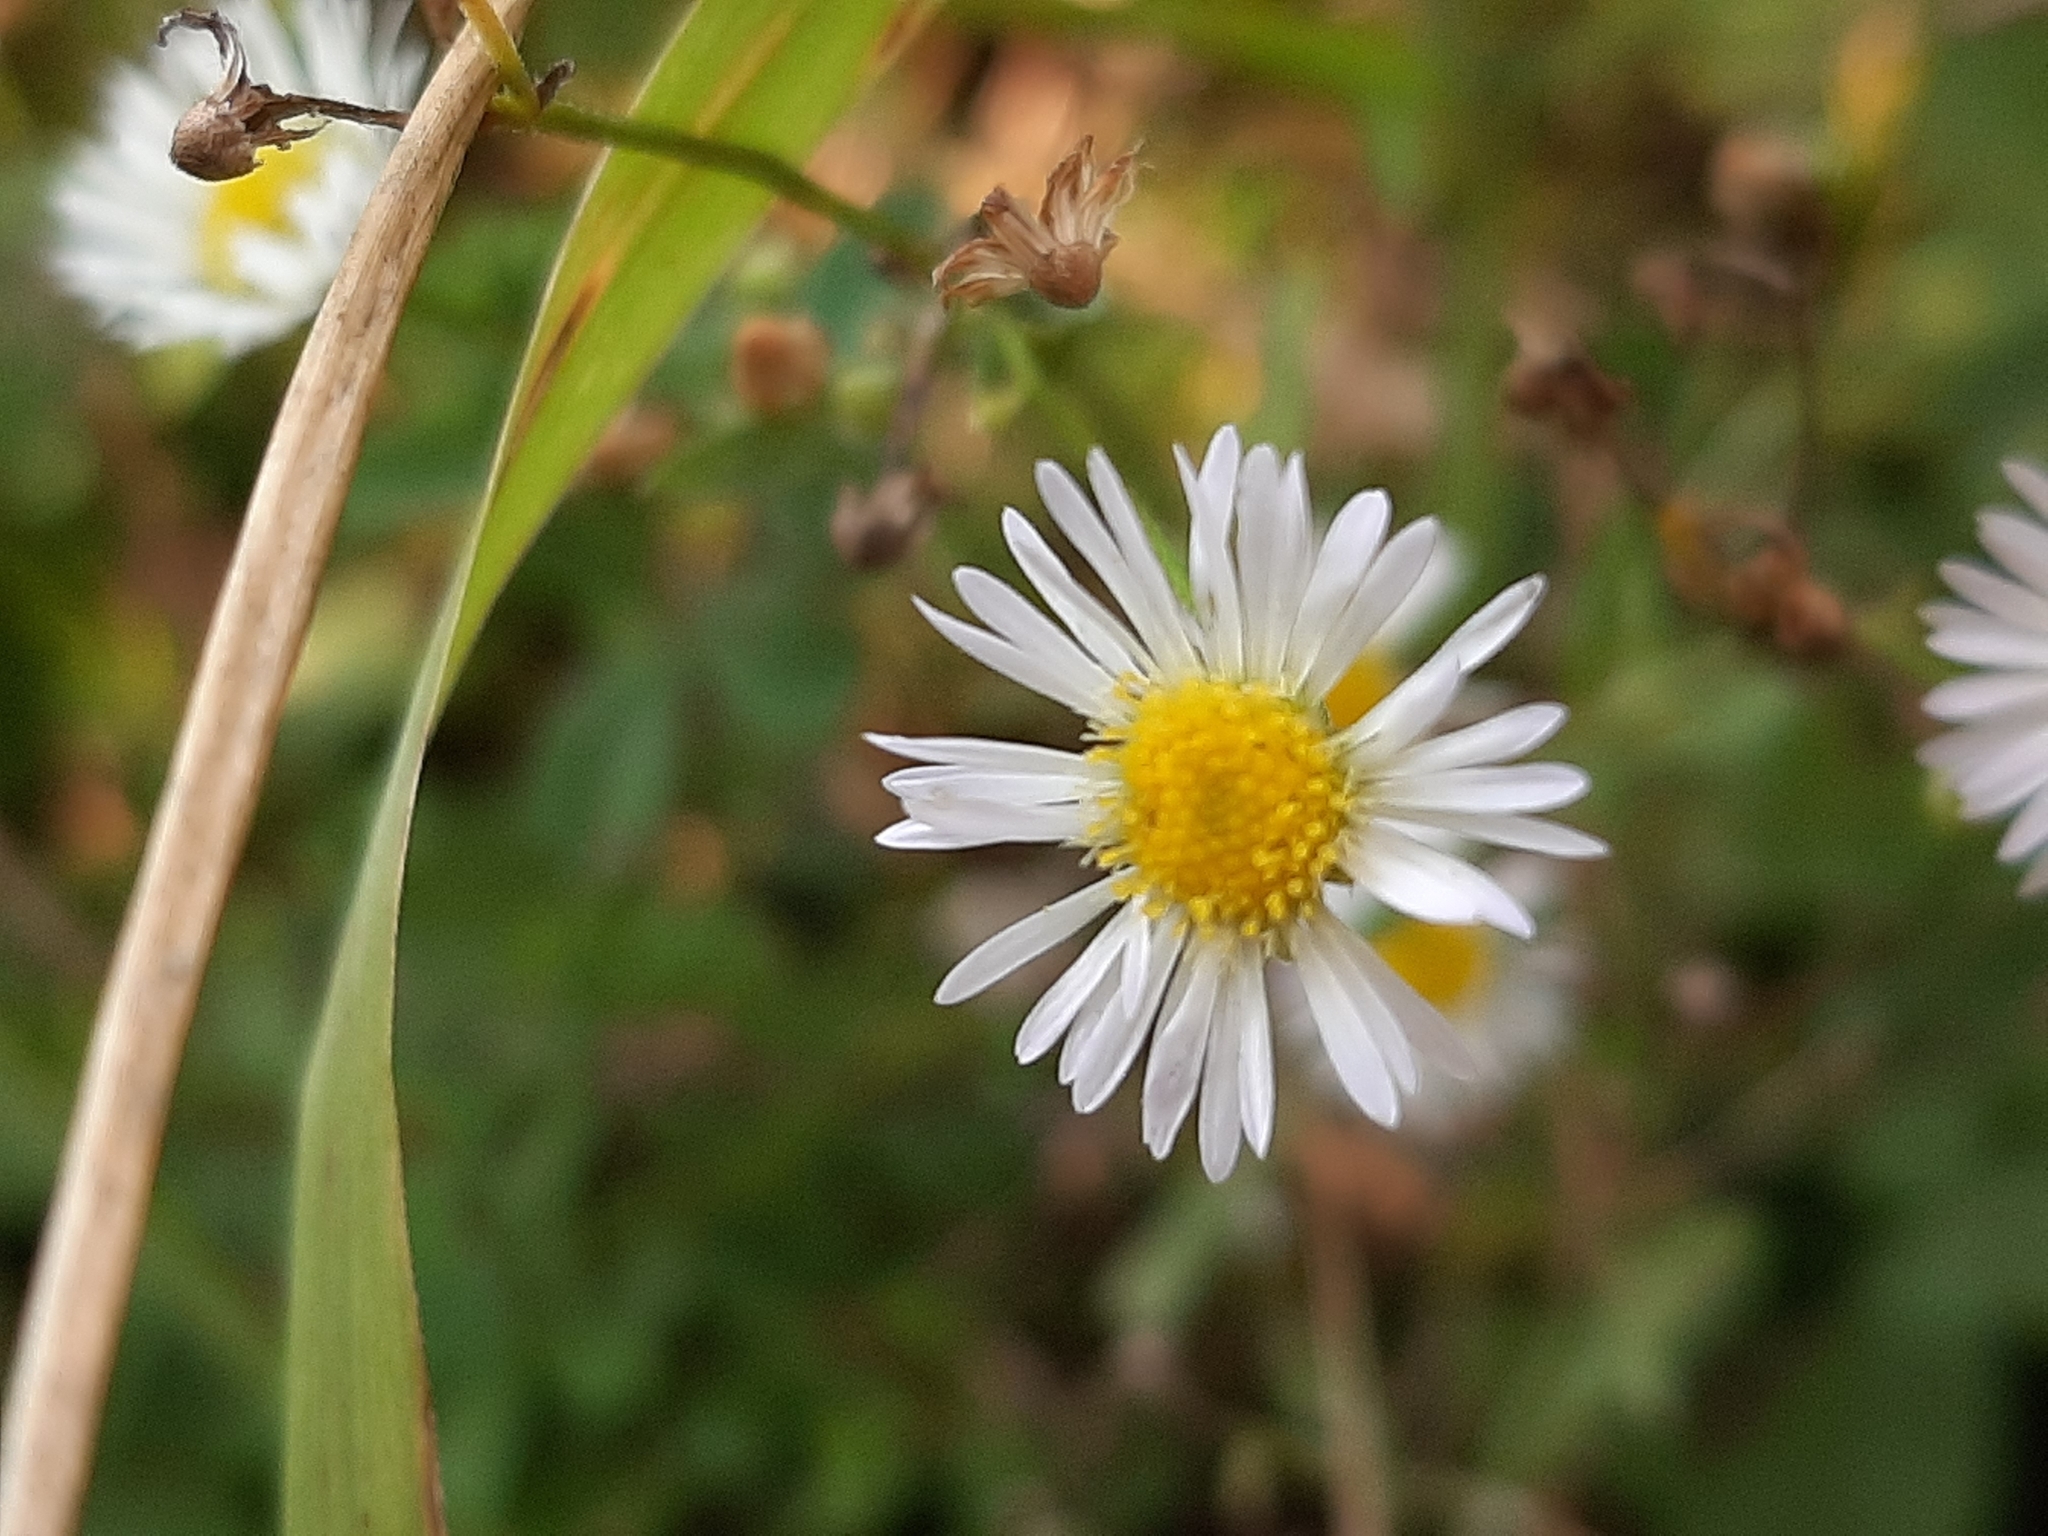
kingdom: Plantae
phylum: Tracheophyta
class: Magnoliopsida
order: Asterales
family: Asteraceae
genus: Erigeron
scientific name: Erigeron strigosus
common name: Common eastern fleabane
